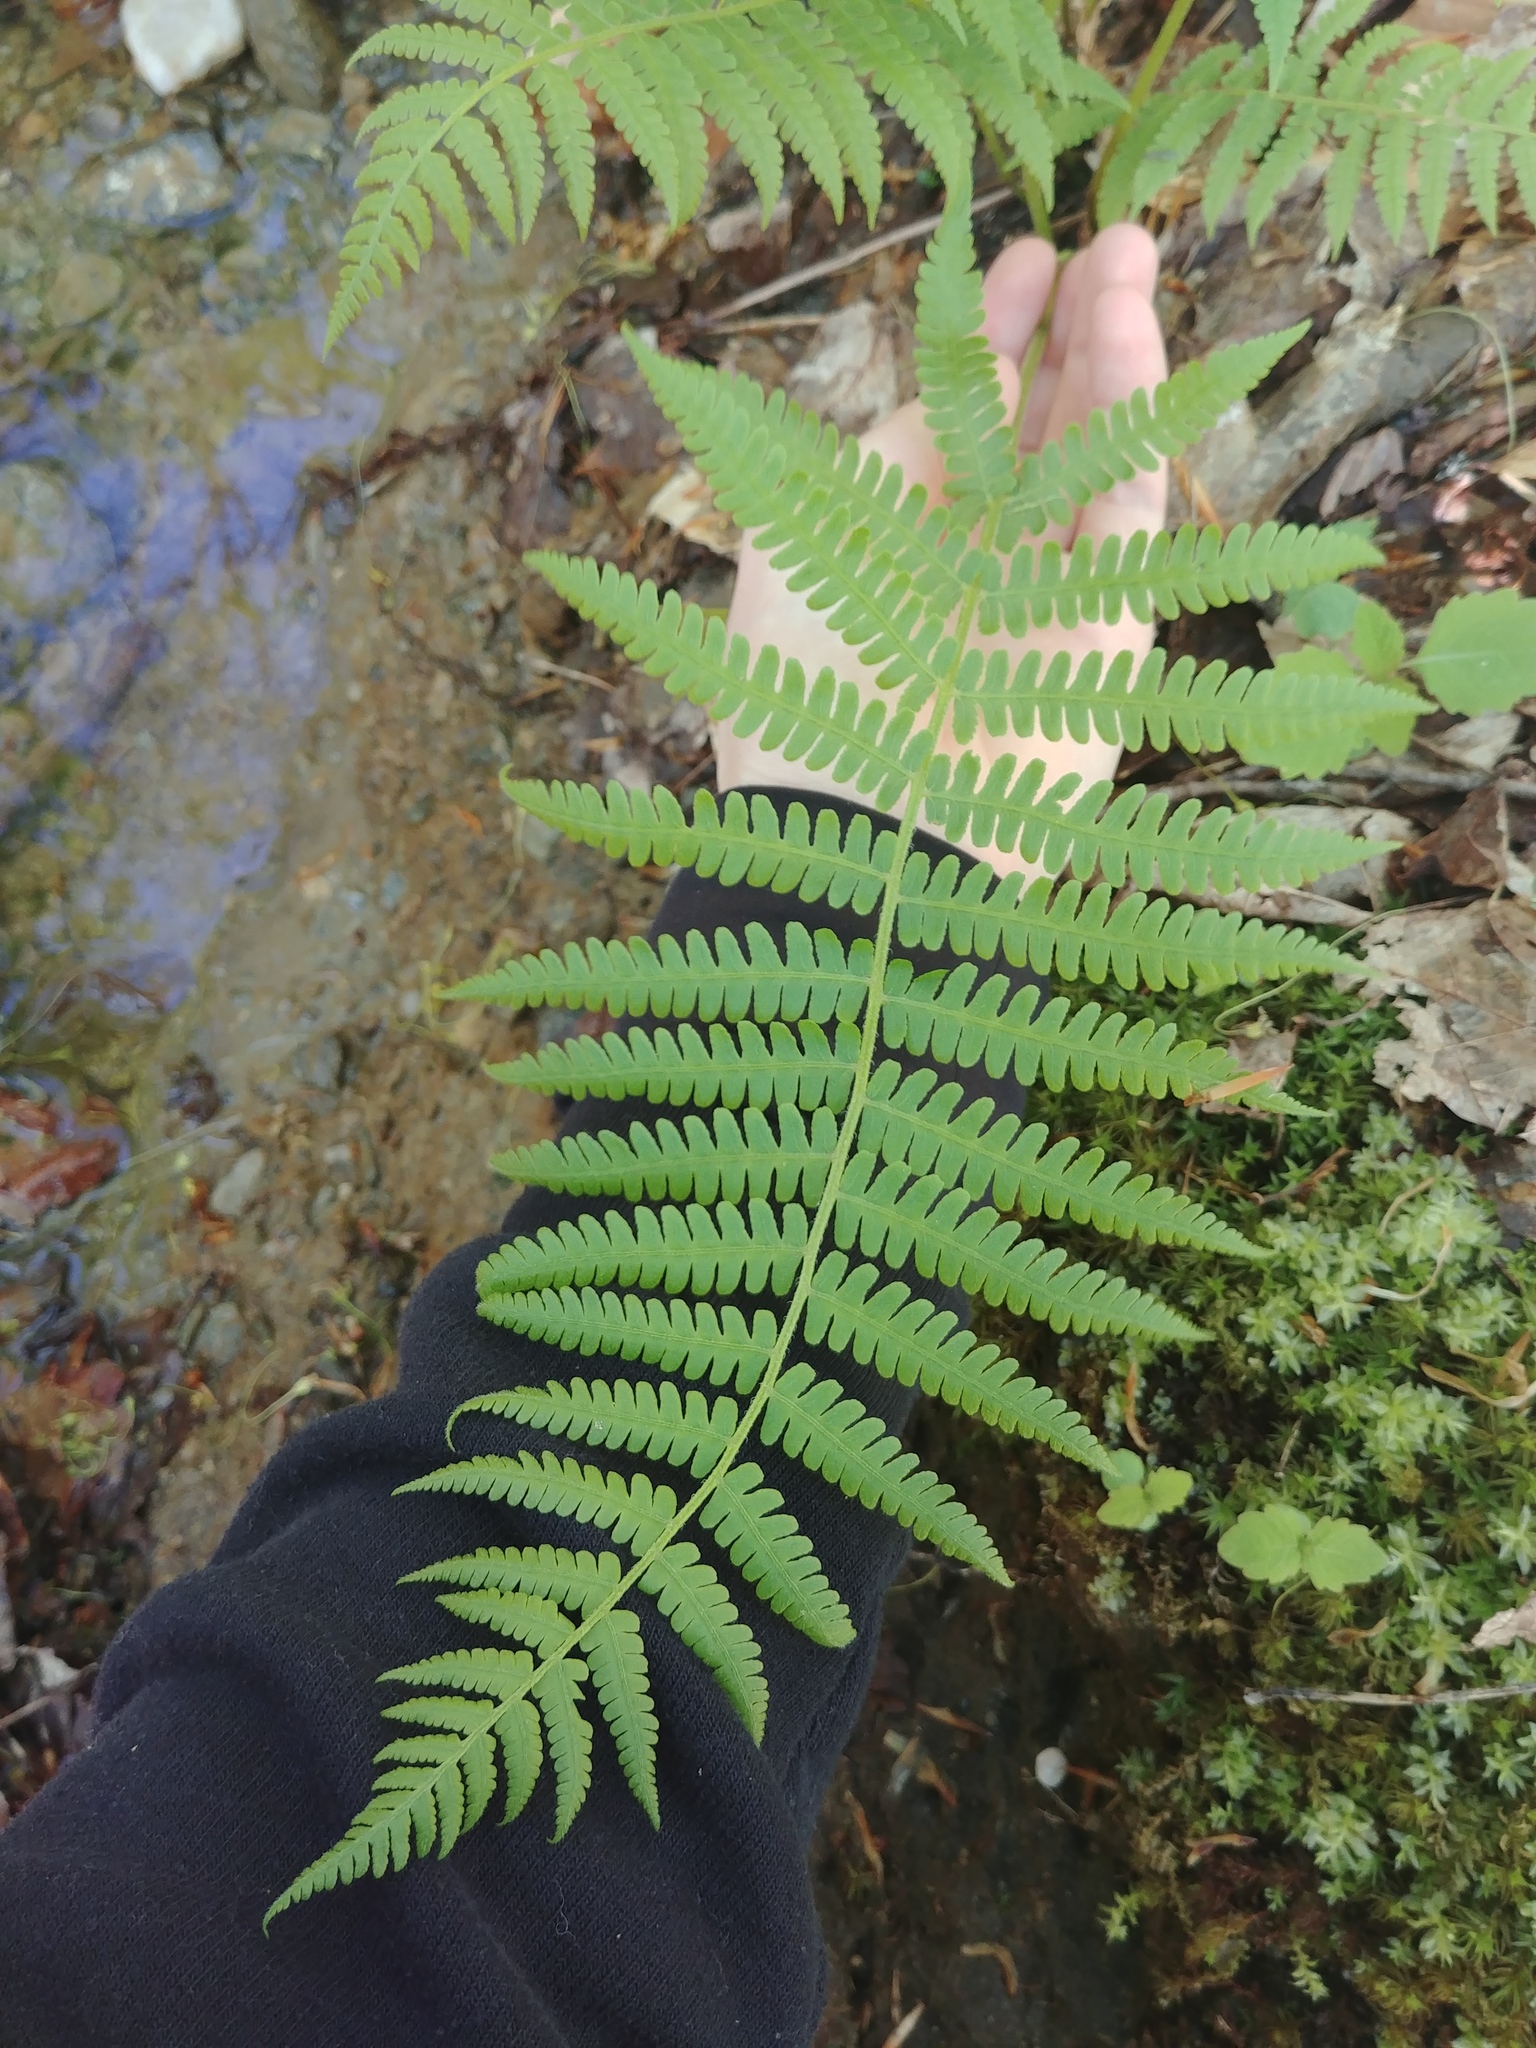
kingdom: Plantae
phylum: Tracheophyta
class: Polypodiopsida
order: Polypodiales
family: Athyriaceae
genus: Deparia
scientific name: Deparia acrostichoides
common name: Silver false spleenwort
